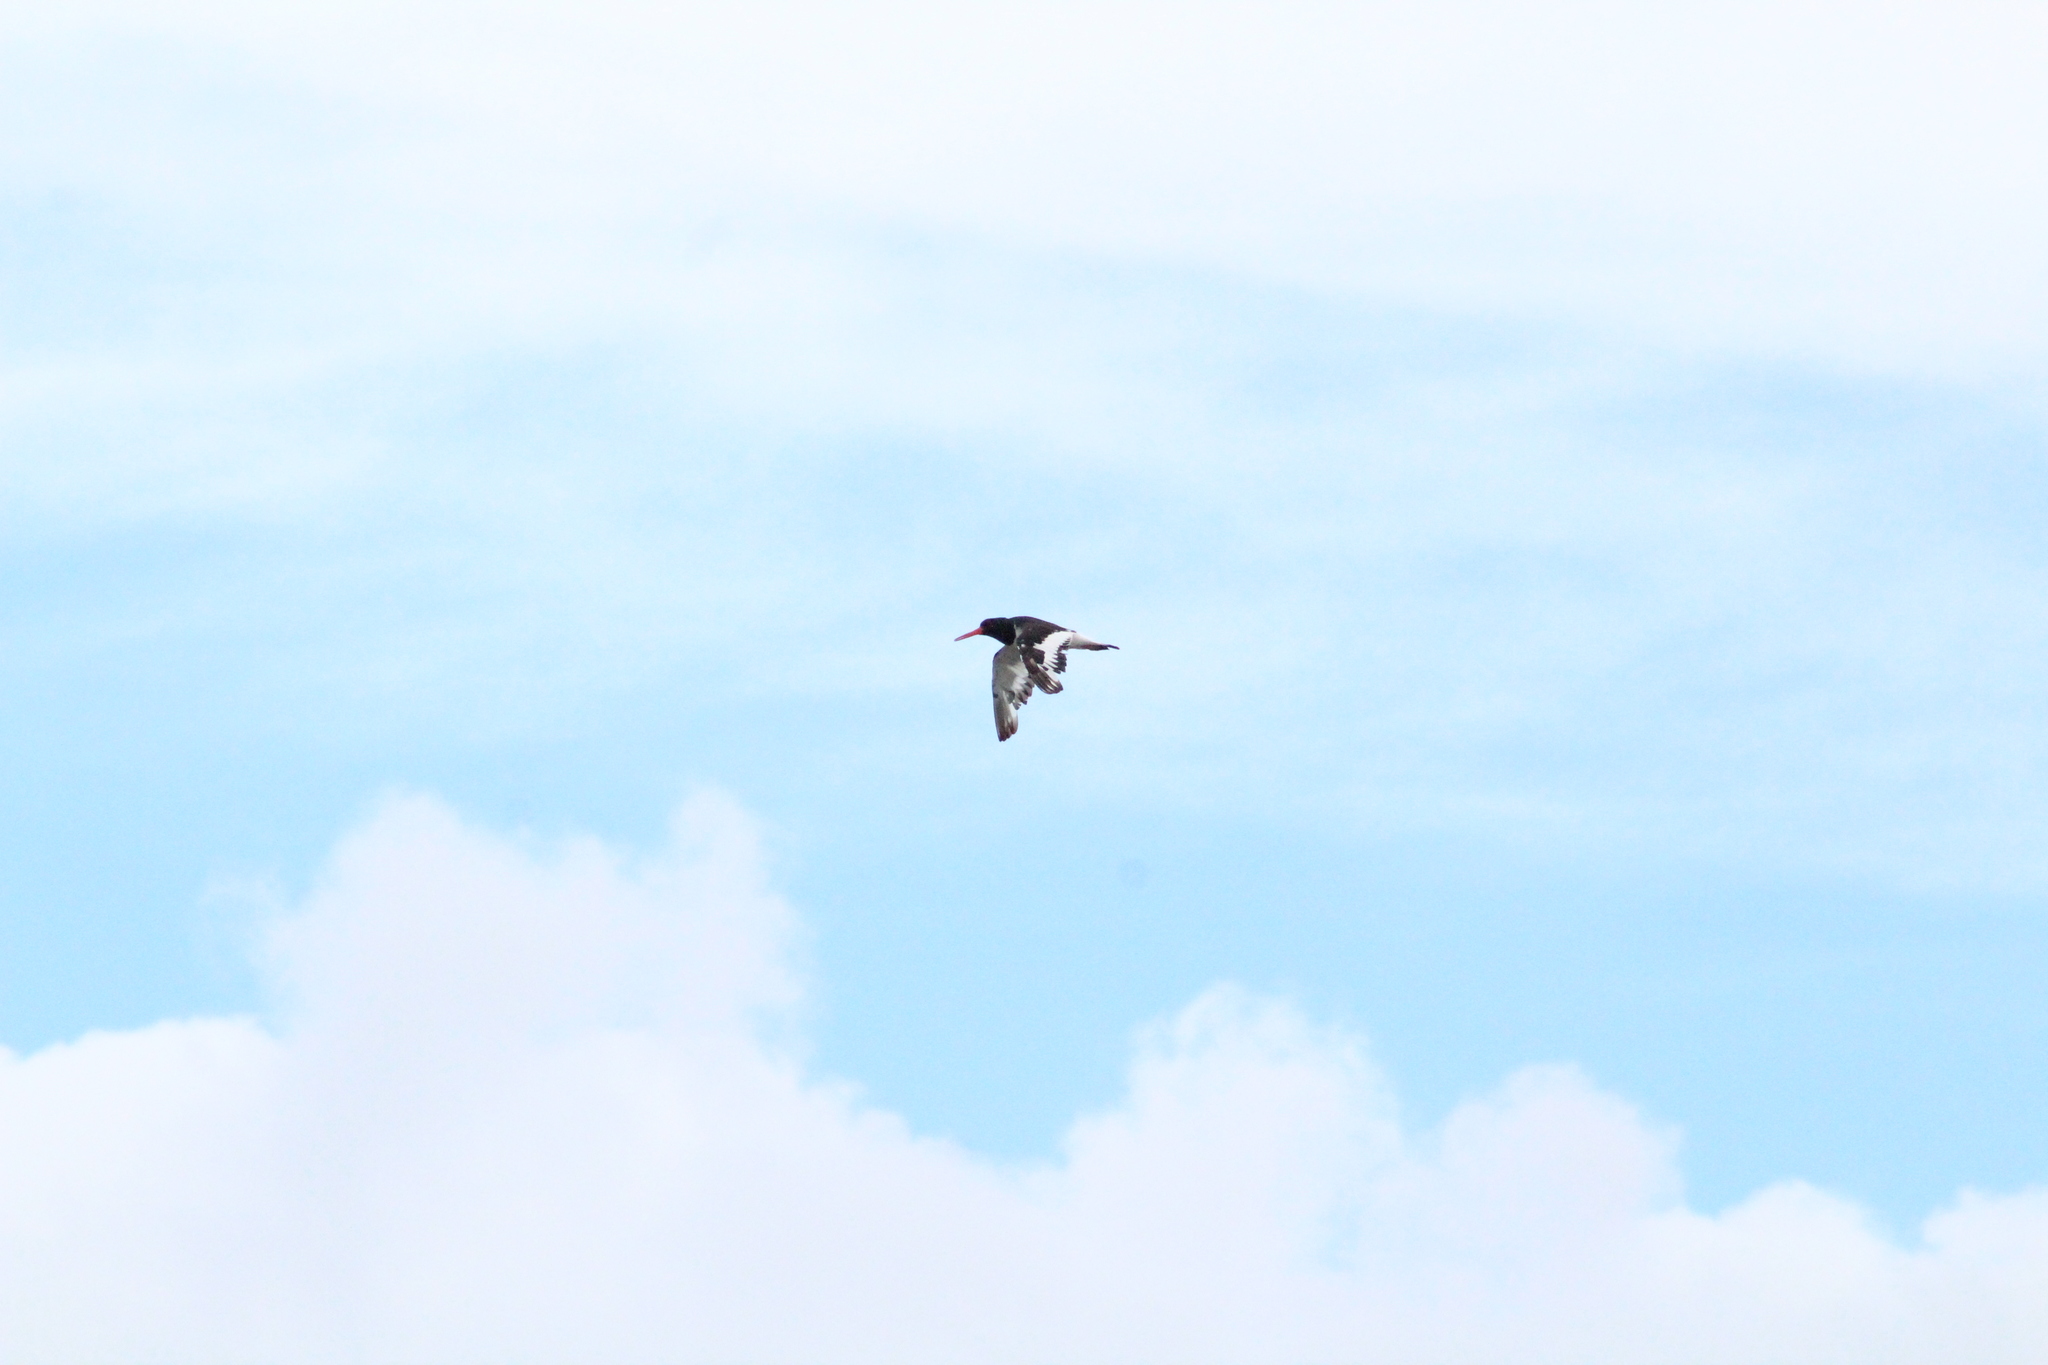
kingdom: Animalia
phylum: Chordata
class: Aves
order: Charadriiformes
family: Haematopodidae
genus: Haematopus
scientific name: Haematopus ostralegus
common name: Eurasian oystercatcher
